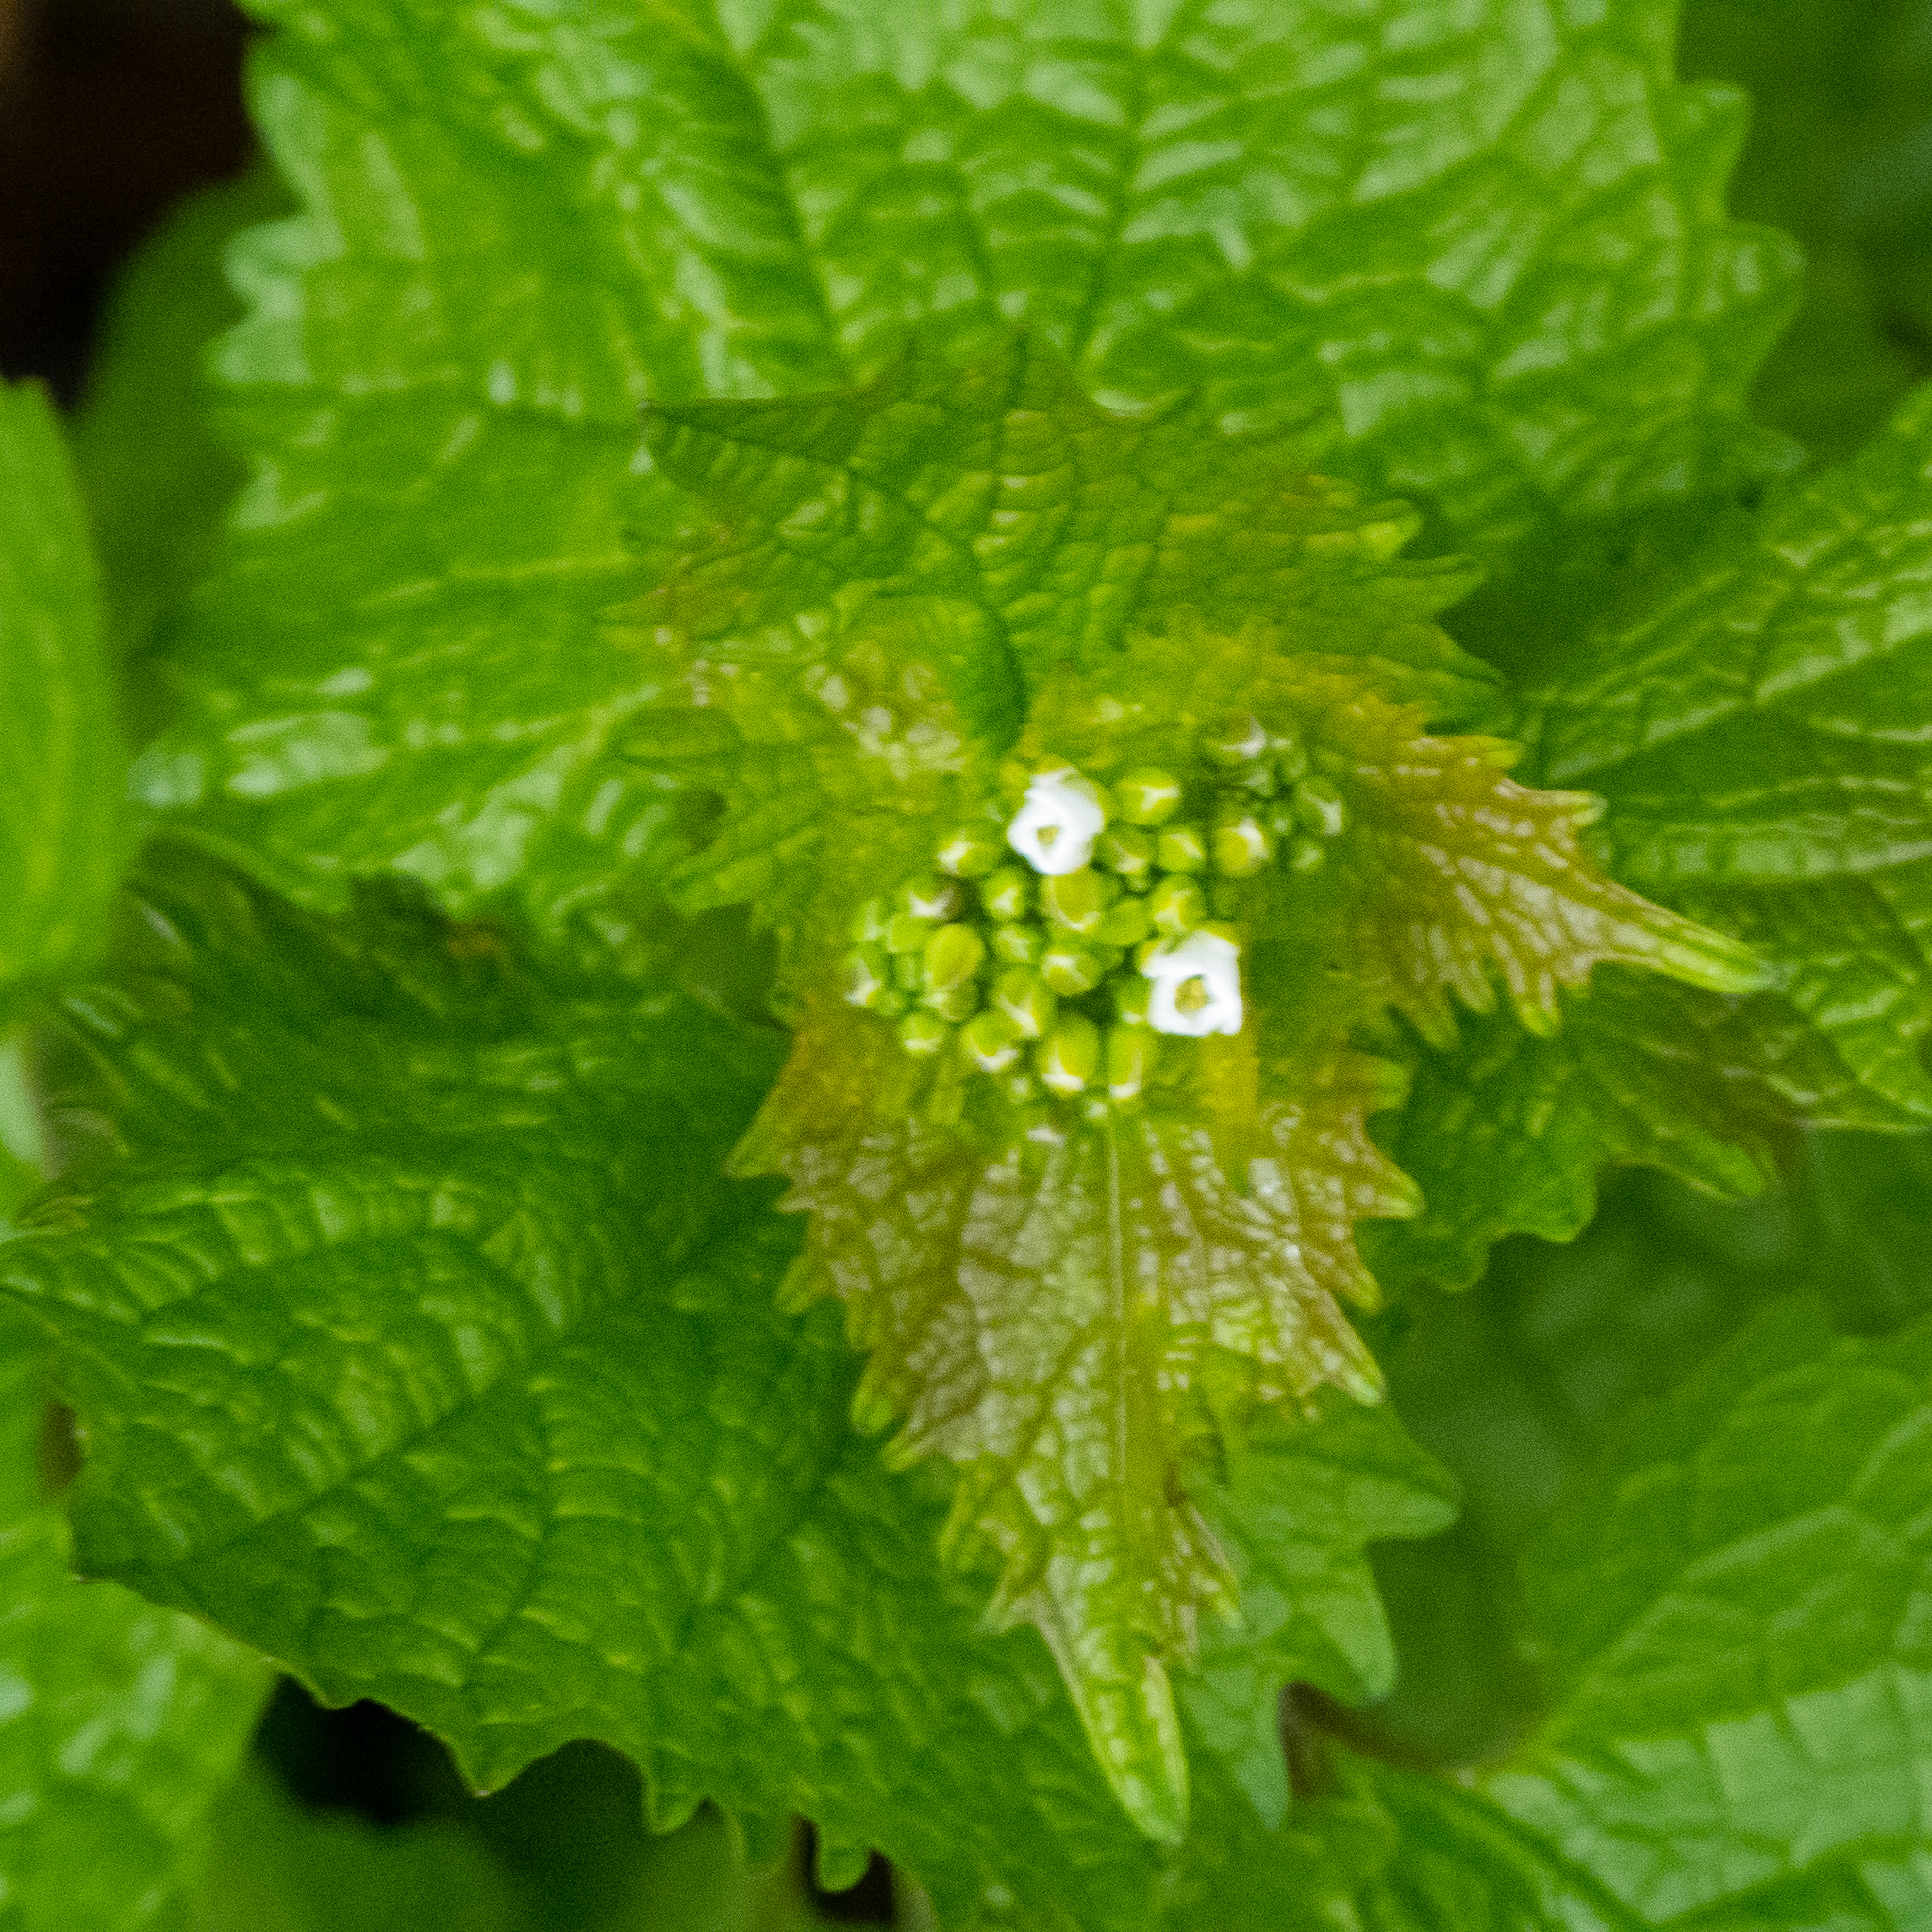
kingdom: Plantae
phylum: Tracheophyta
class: Magnoliopsida
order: Brassicales
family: Brassicaceae
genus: Alliaria
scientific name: Alliaria petiolata
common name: Garlic mustard
